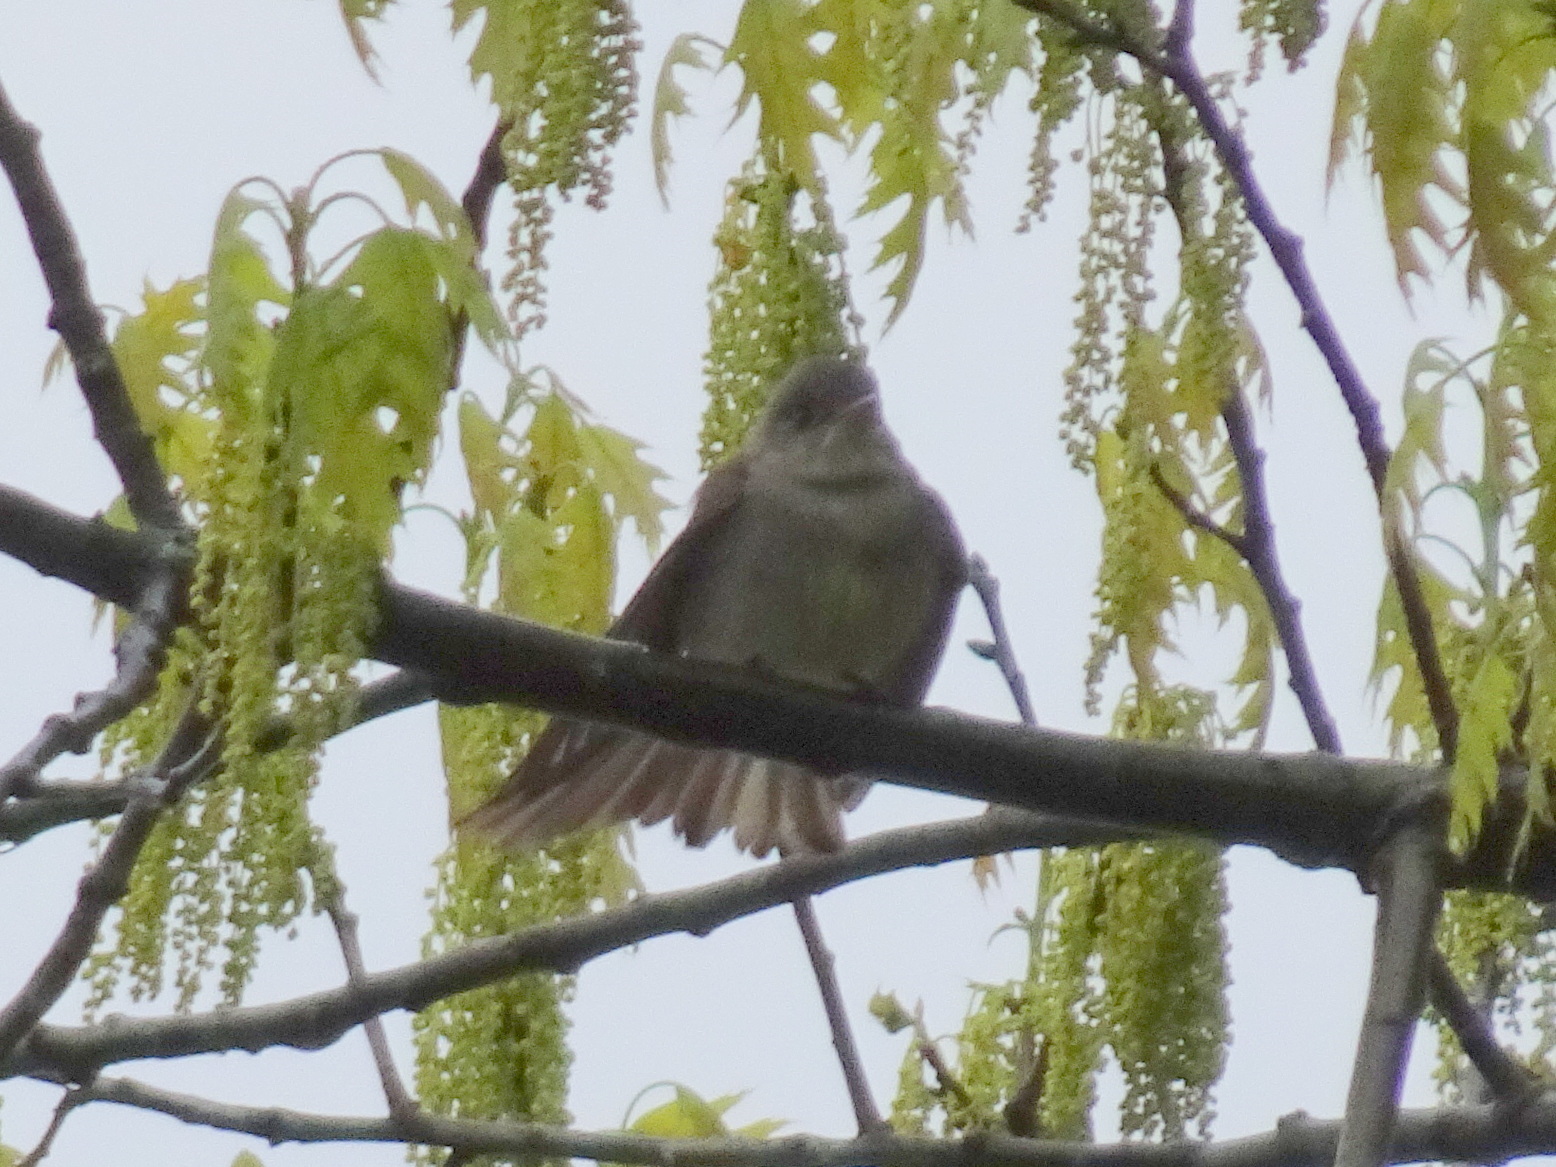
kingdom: Animalia
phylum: Chordata
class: Aves
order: Passeriformes
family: Tyrannidae
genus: Contopus
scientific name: Contopus virens
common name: Eastern wood-pewee
